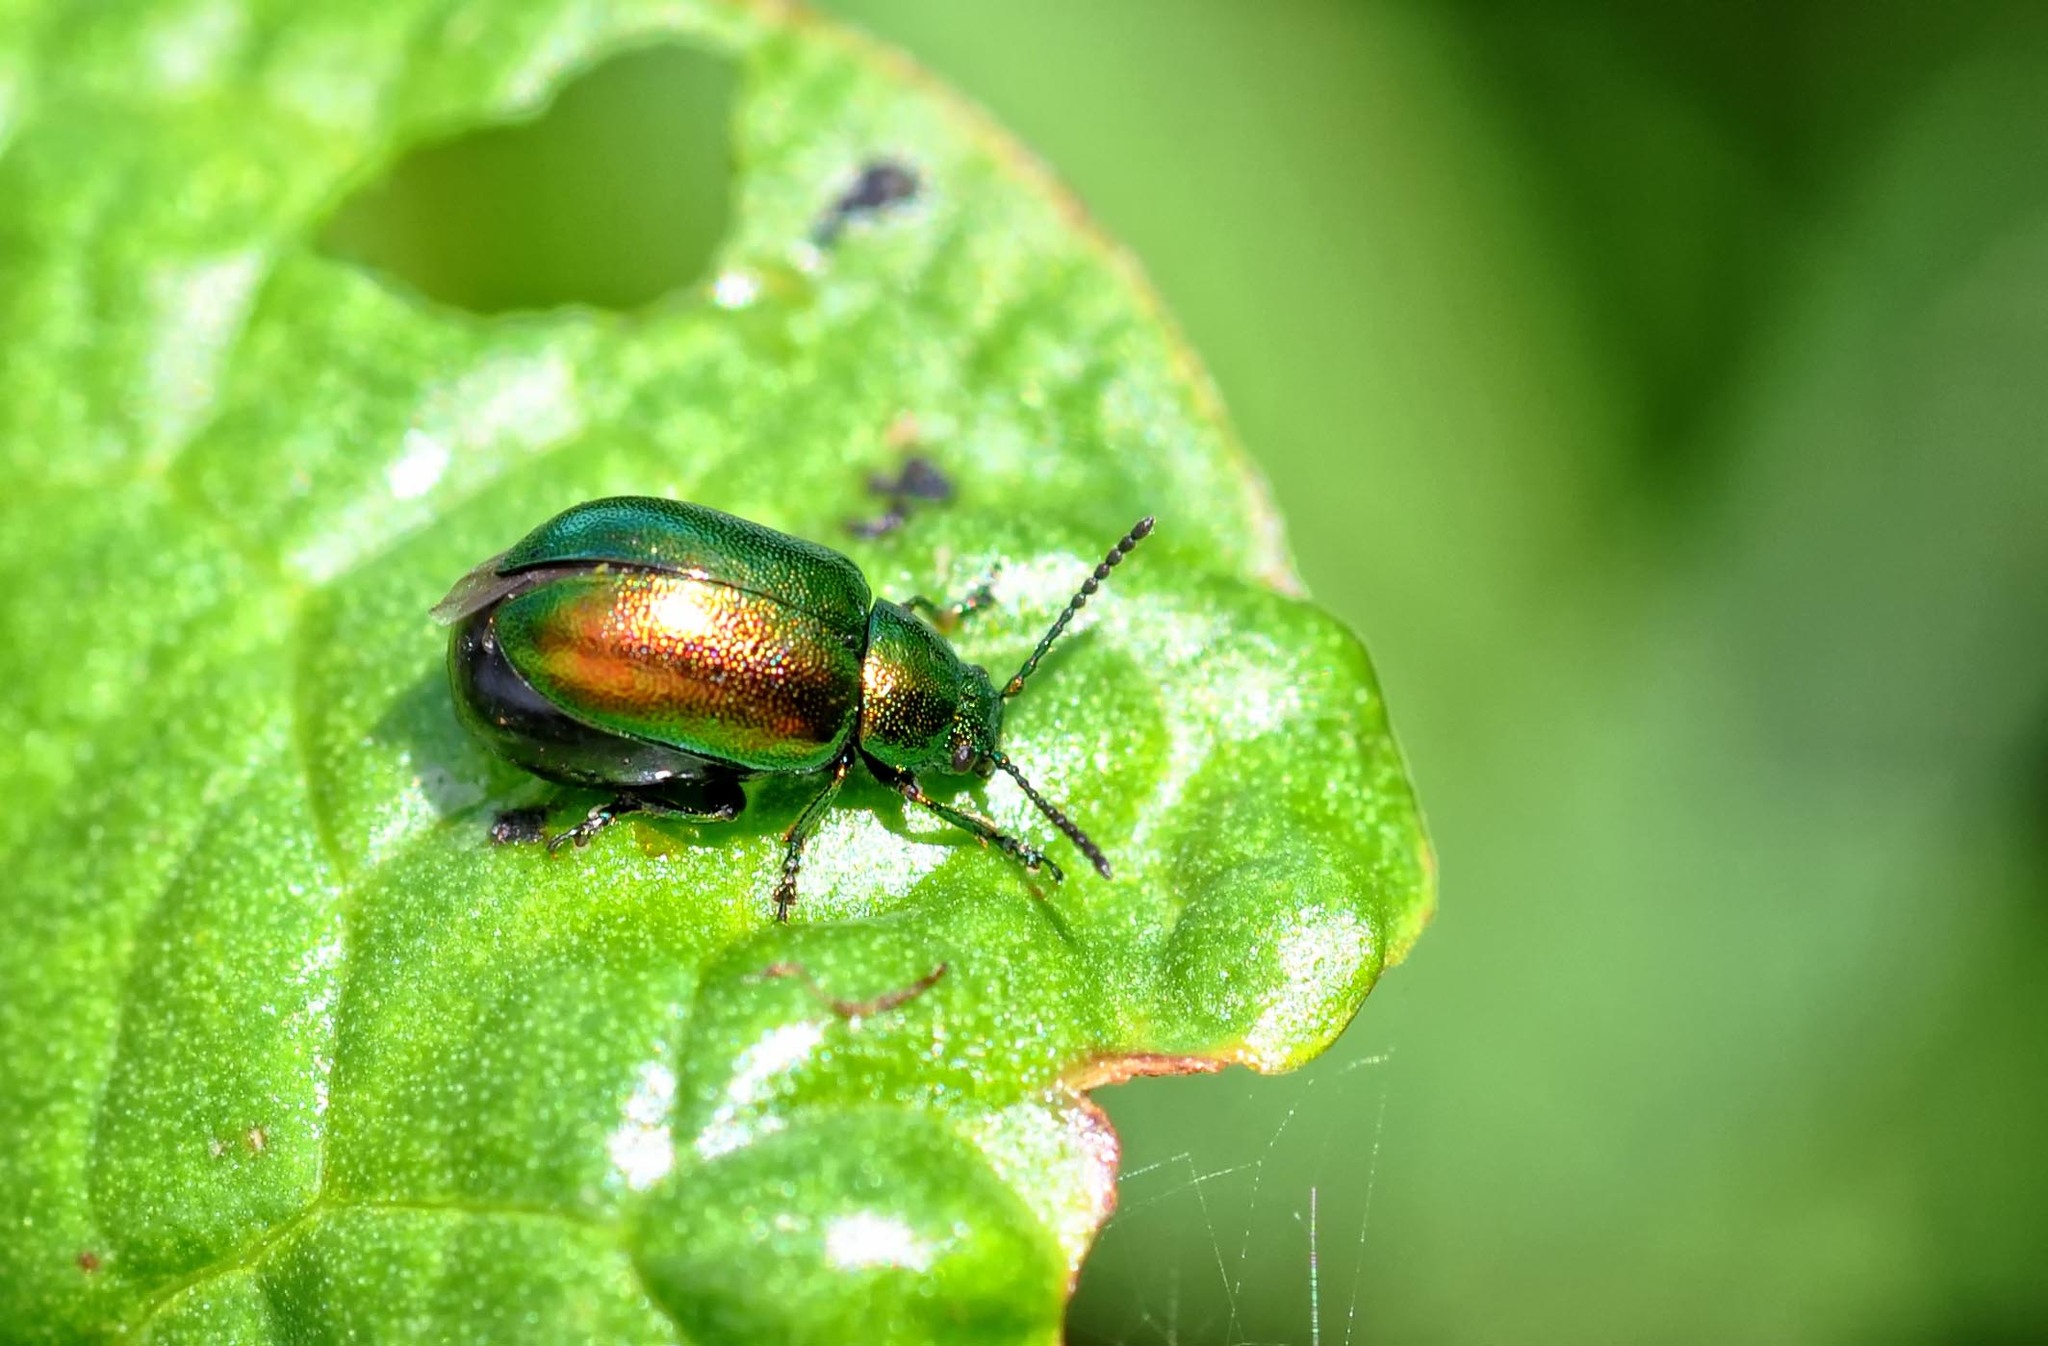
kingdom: Animalia
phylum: Arthropoda
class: Insecta
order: Coleoptera
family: Chrysomelidae
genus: Gastrophysa
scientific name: Gastrophysa viridula
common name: Green dock beetle
